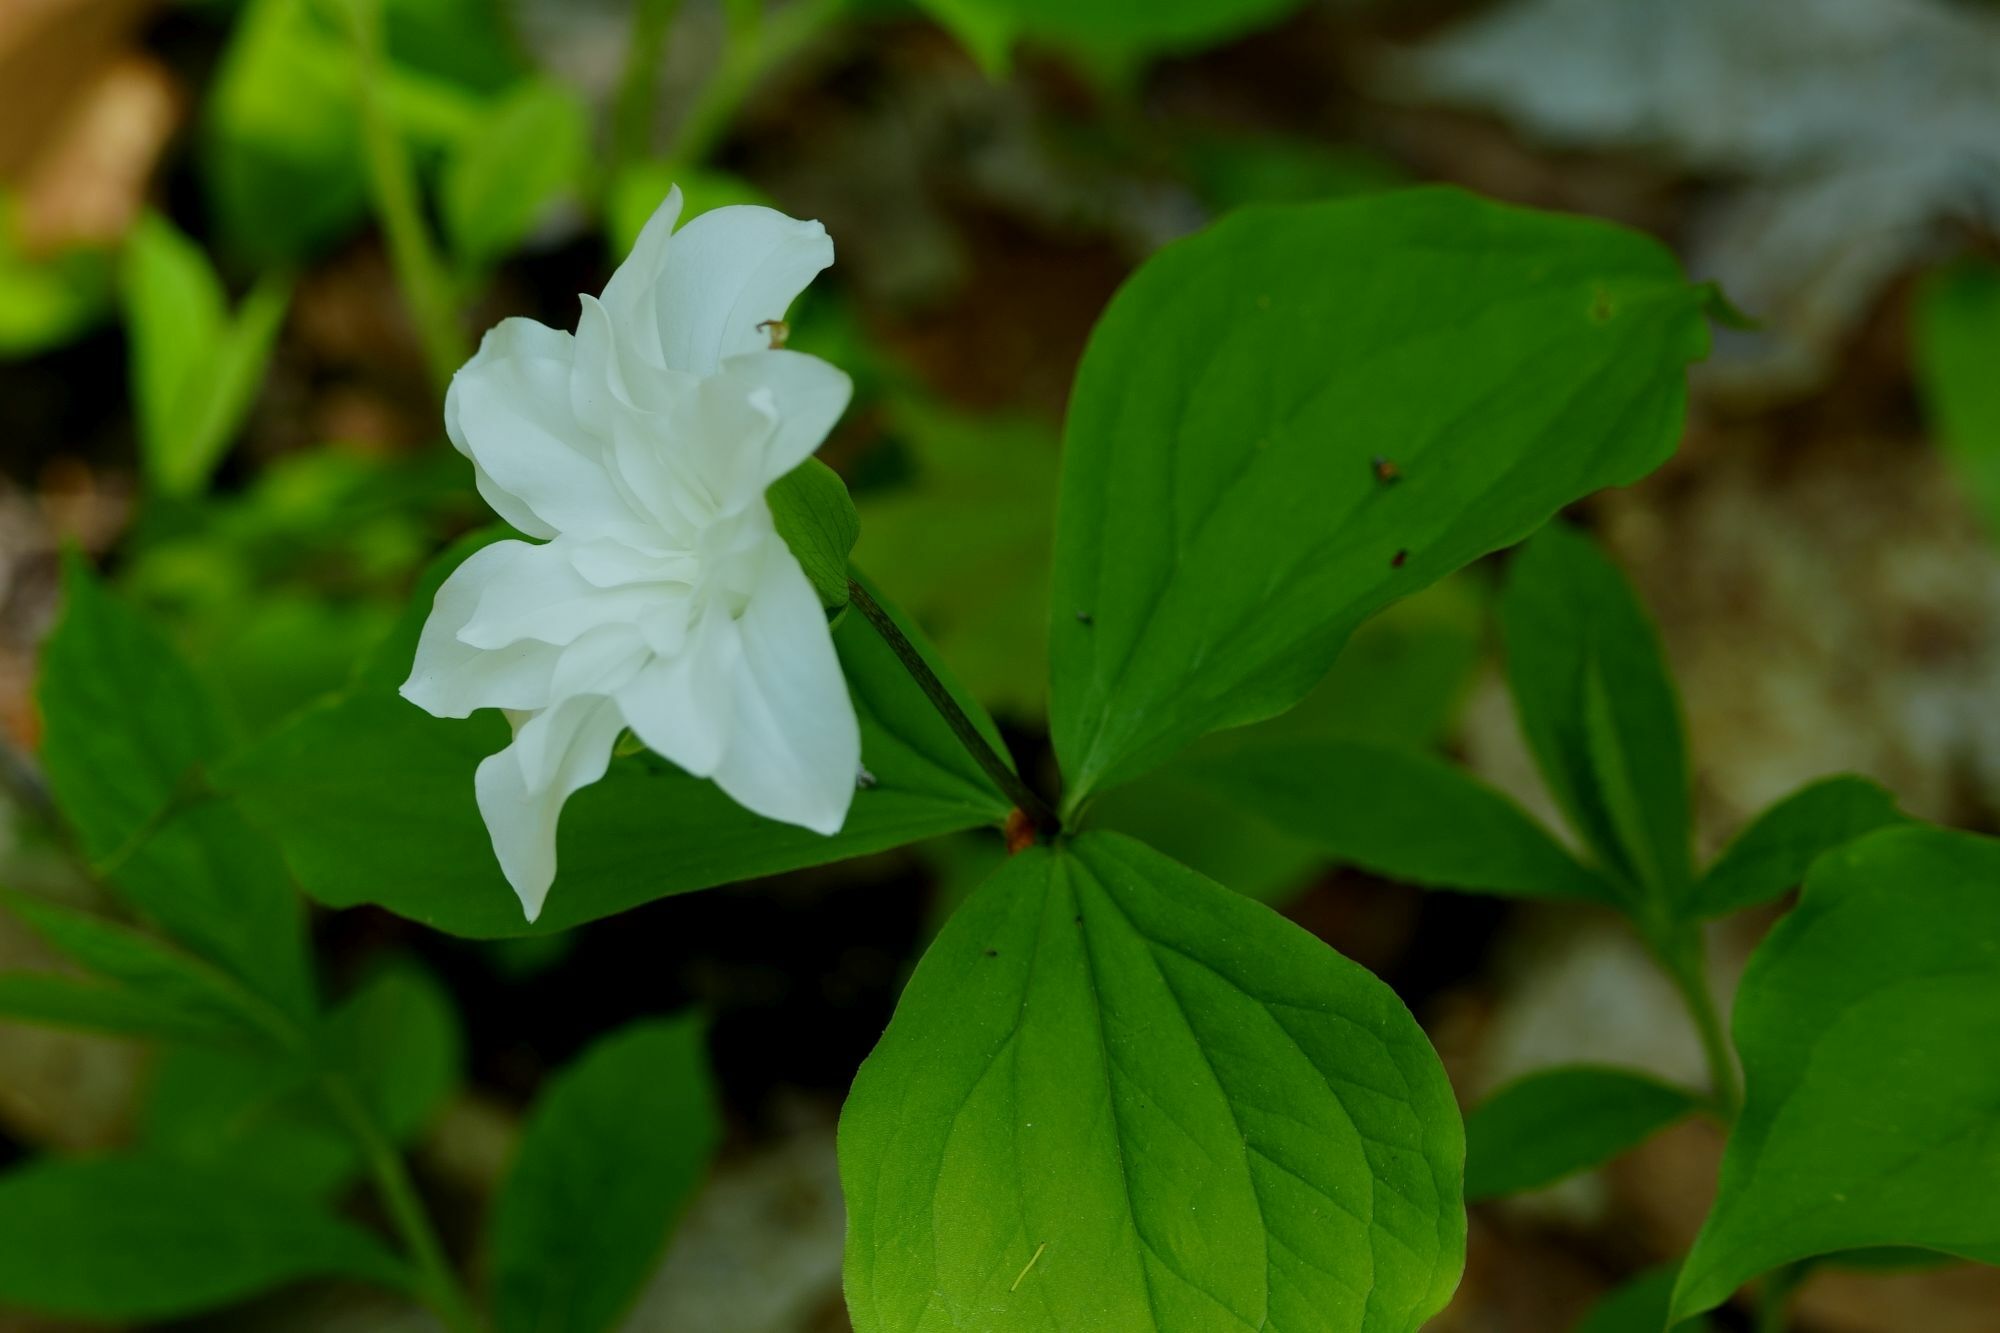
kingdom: Plantae
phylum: Tracheophyta
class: Liliopsida
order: Liliales
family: Melanthiaceae
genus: Trillium
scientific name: Trillium grandiflorum
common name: Great white trillium
